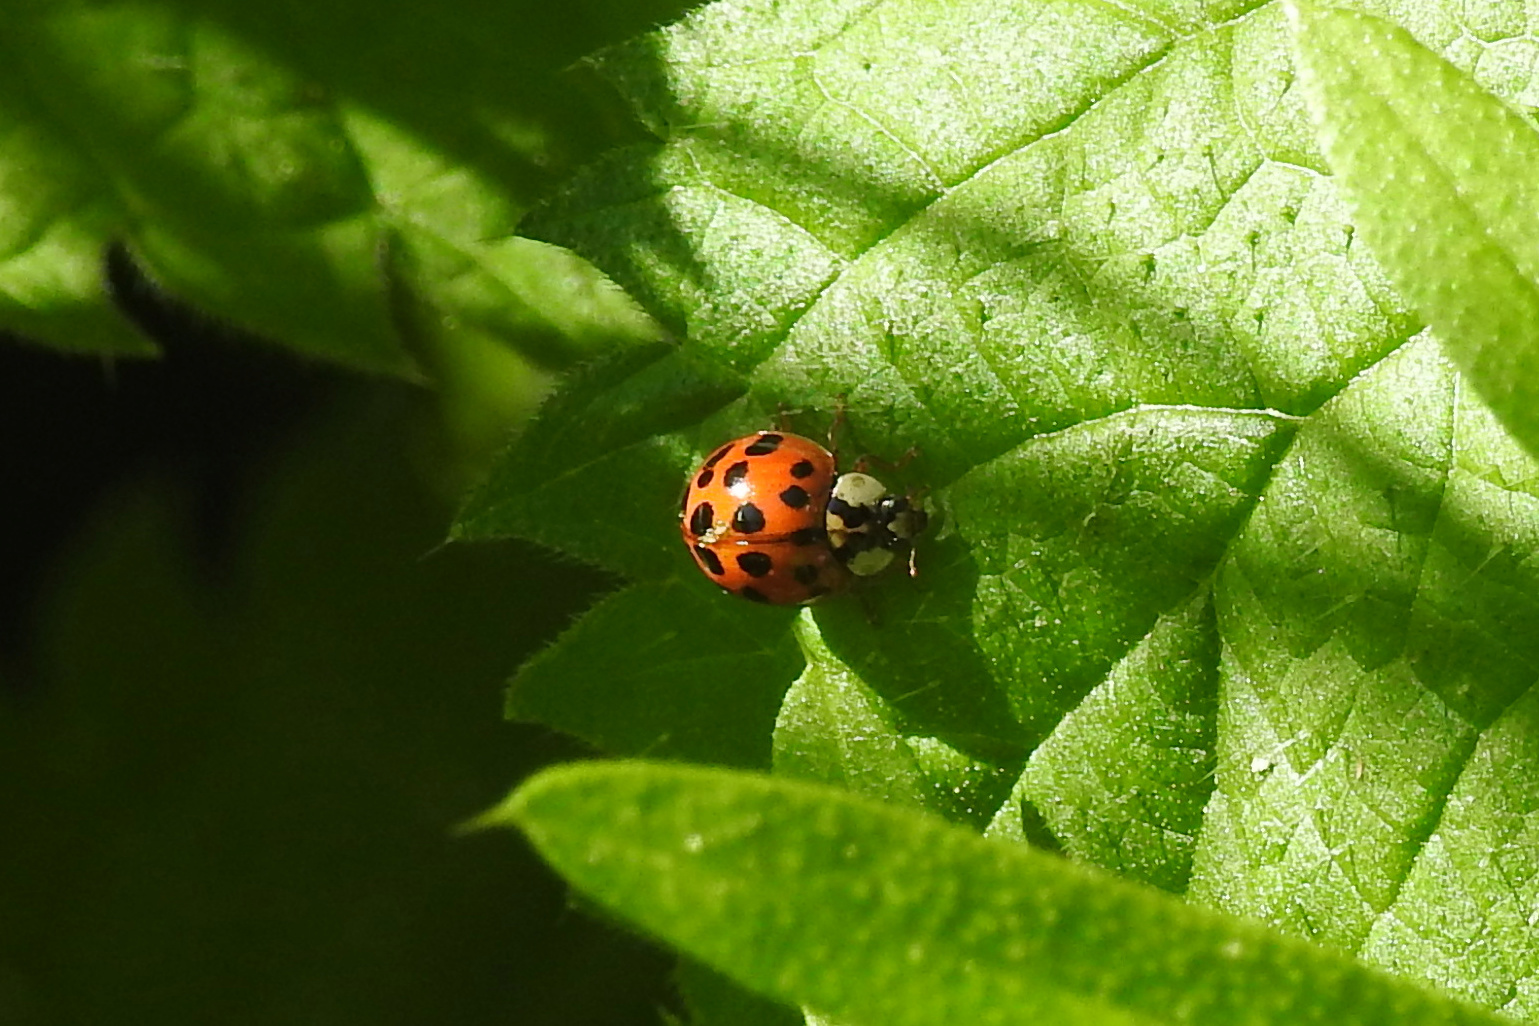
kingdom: Animalia
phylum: Arthropoda
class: Insecta
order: Coleoptera
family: Coccinellidae
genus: Harmonia
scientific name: Harmonia axyridis
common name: Harlequin ladybird
